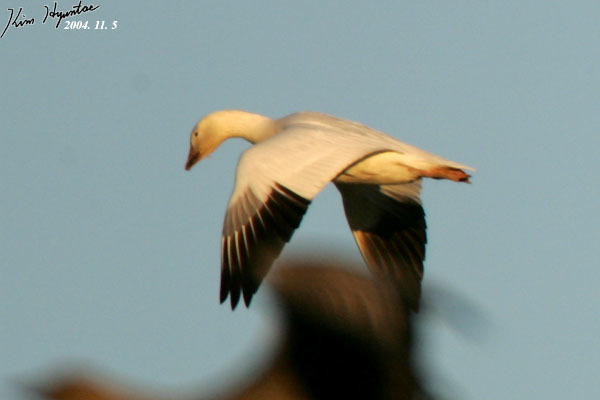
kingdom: Animalia
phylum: Chordata
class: Aves
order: Anseriformes
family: Anatidae
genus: Anser
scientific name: Anser caerulescens
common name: Snow goose
